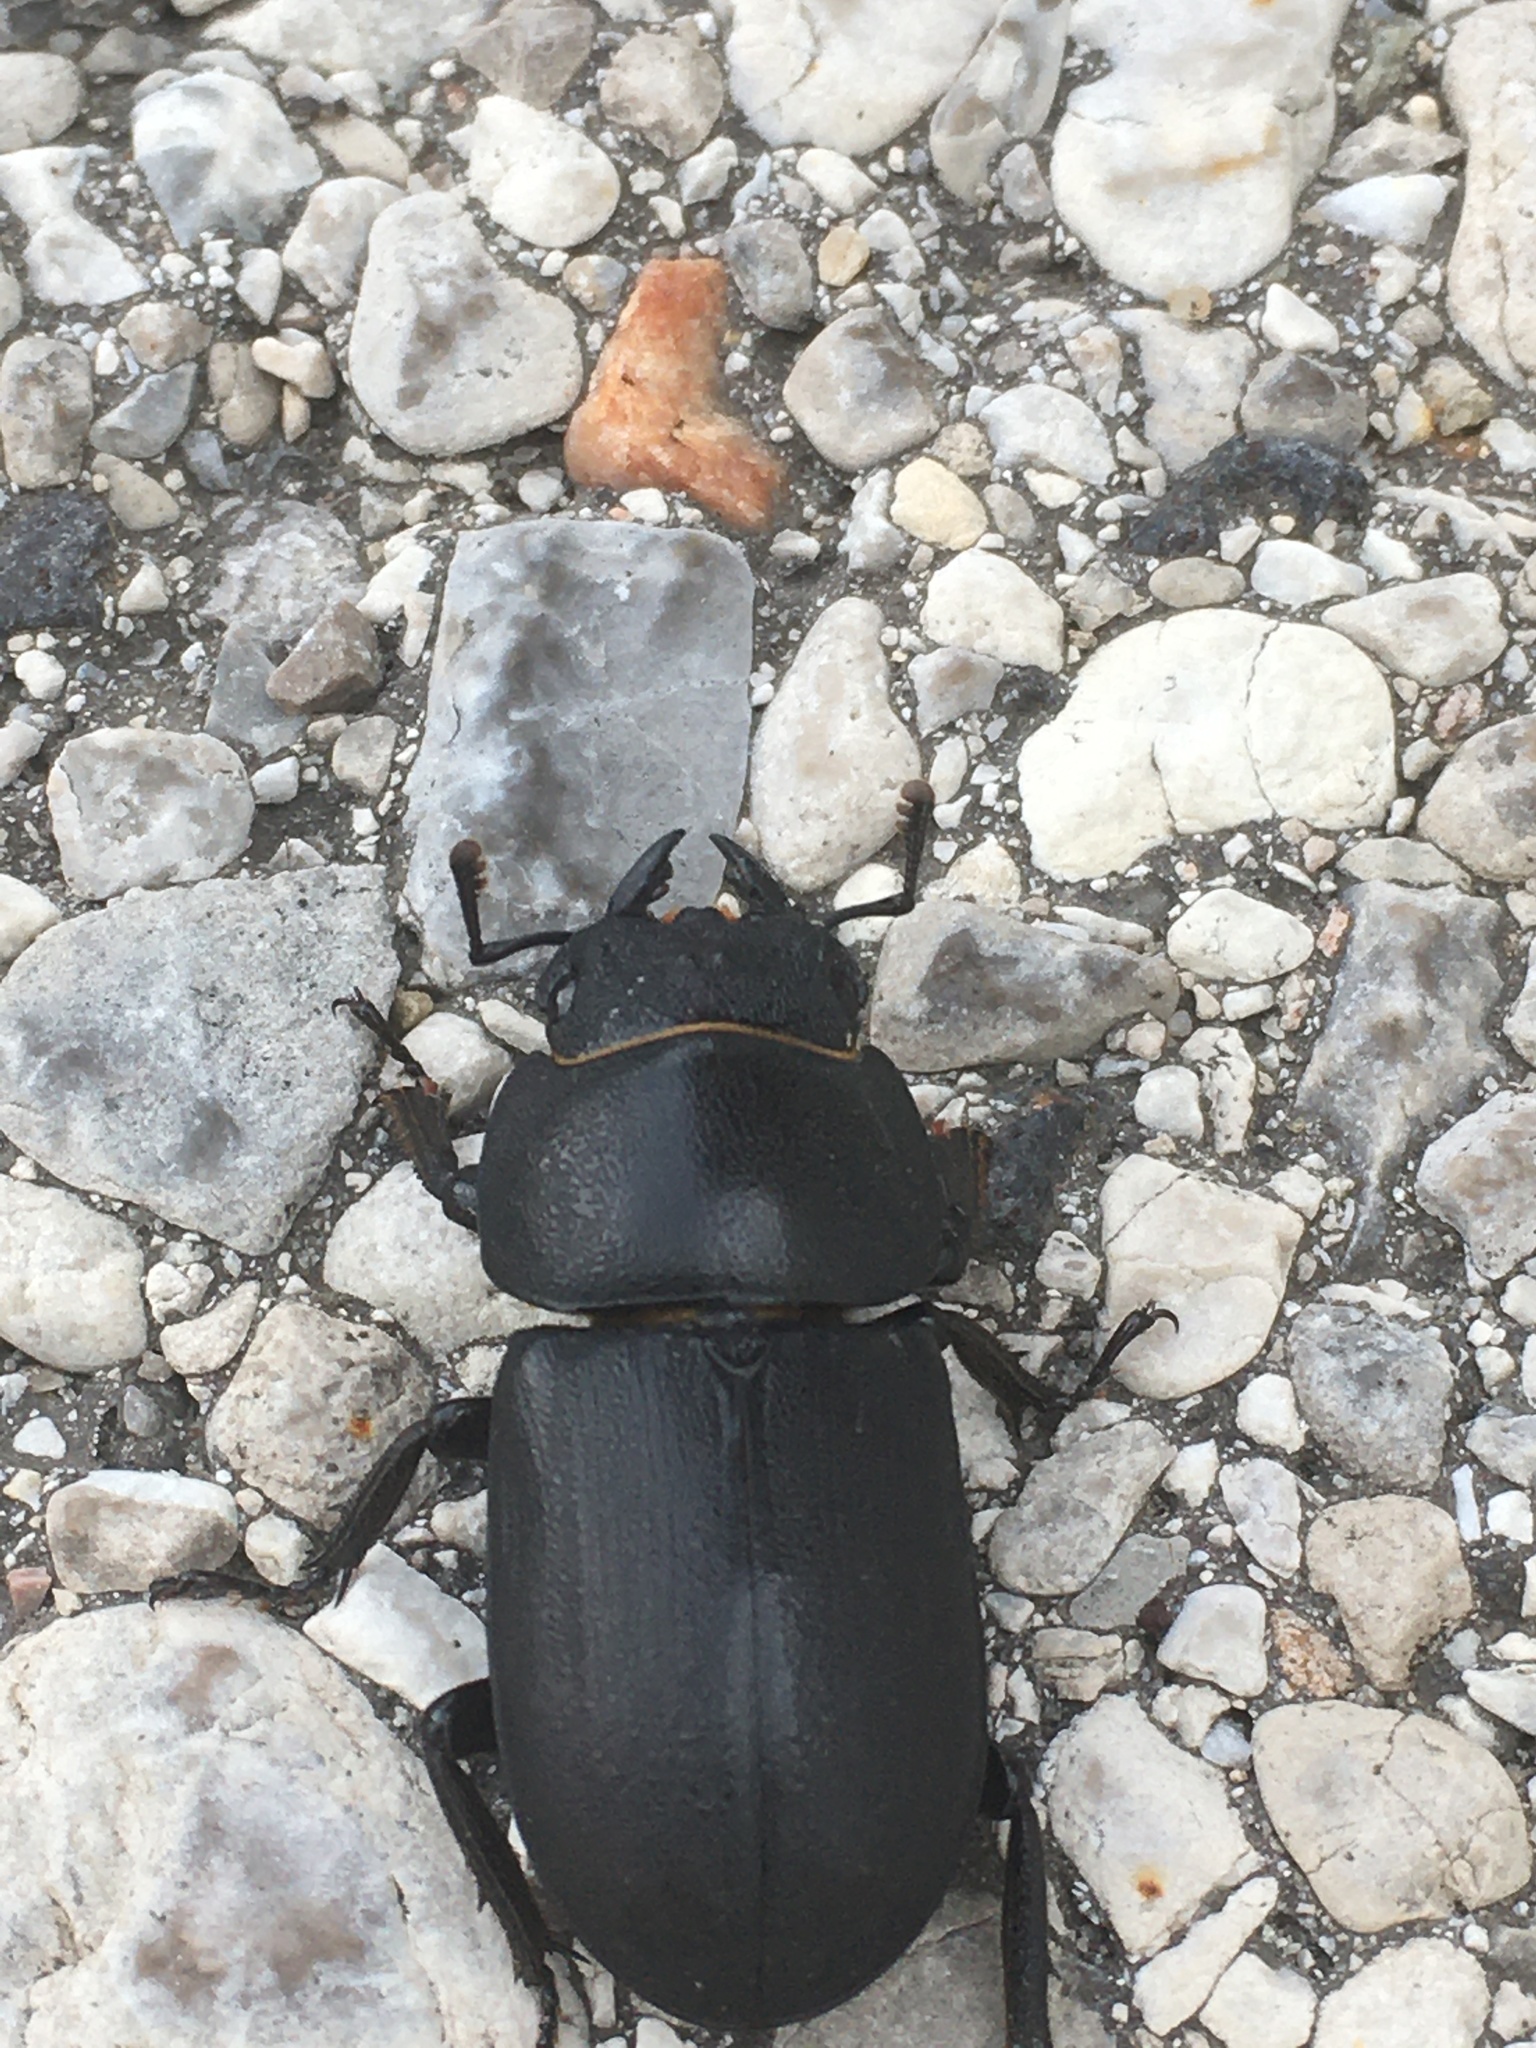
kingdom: Animalia
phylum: Arthropoda
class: Insecta
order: Coleoptera
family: Lucanidae
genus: Dorcus
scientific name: Dorcus parallelipipedus
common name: Lesser stag beetle
